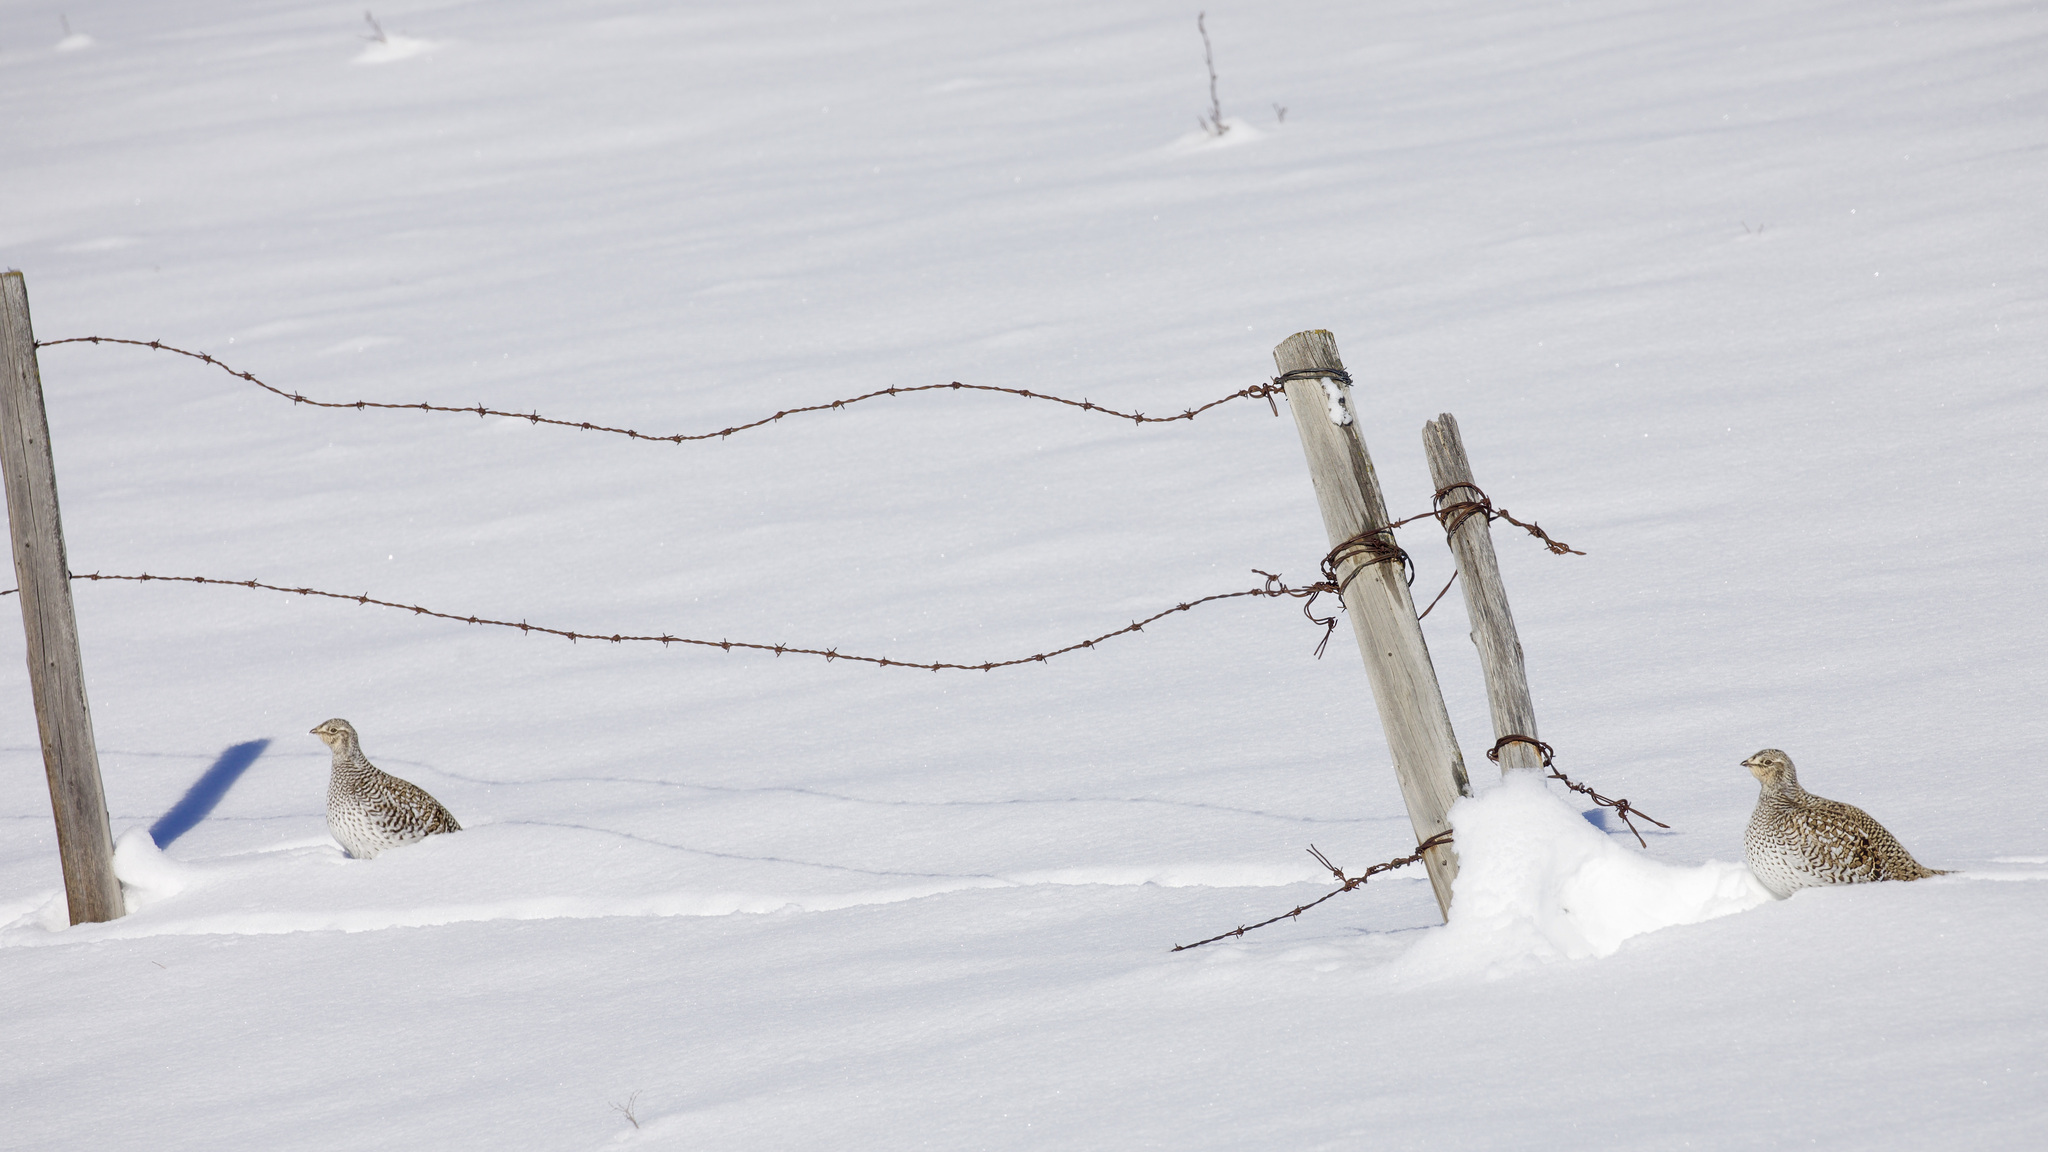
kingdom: Animalia
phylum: Chordata
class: Aves
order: Galliformes
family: Phasianidae
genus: Tympanuchus
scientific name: Tympanuchus phasianellus
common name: Sharp-tailed grouse
